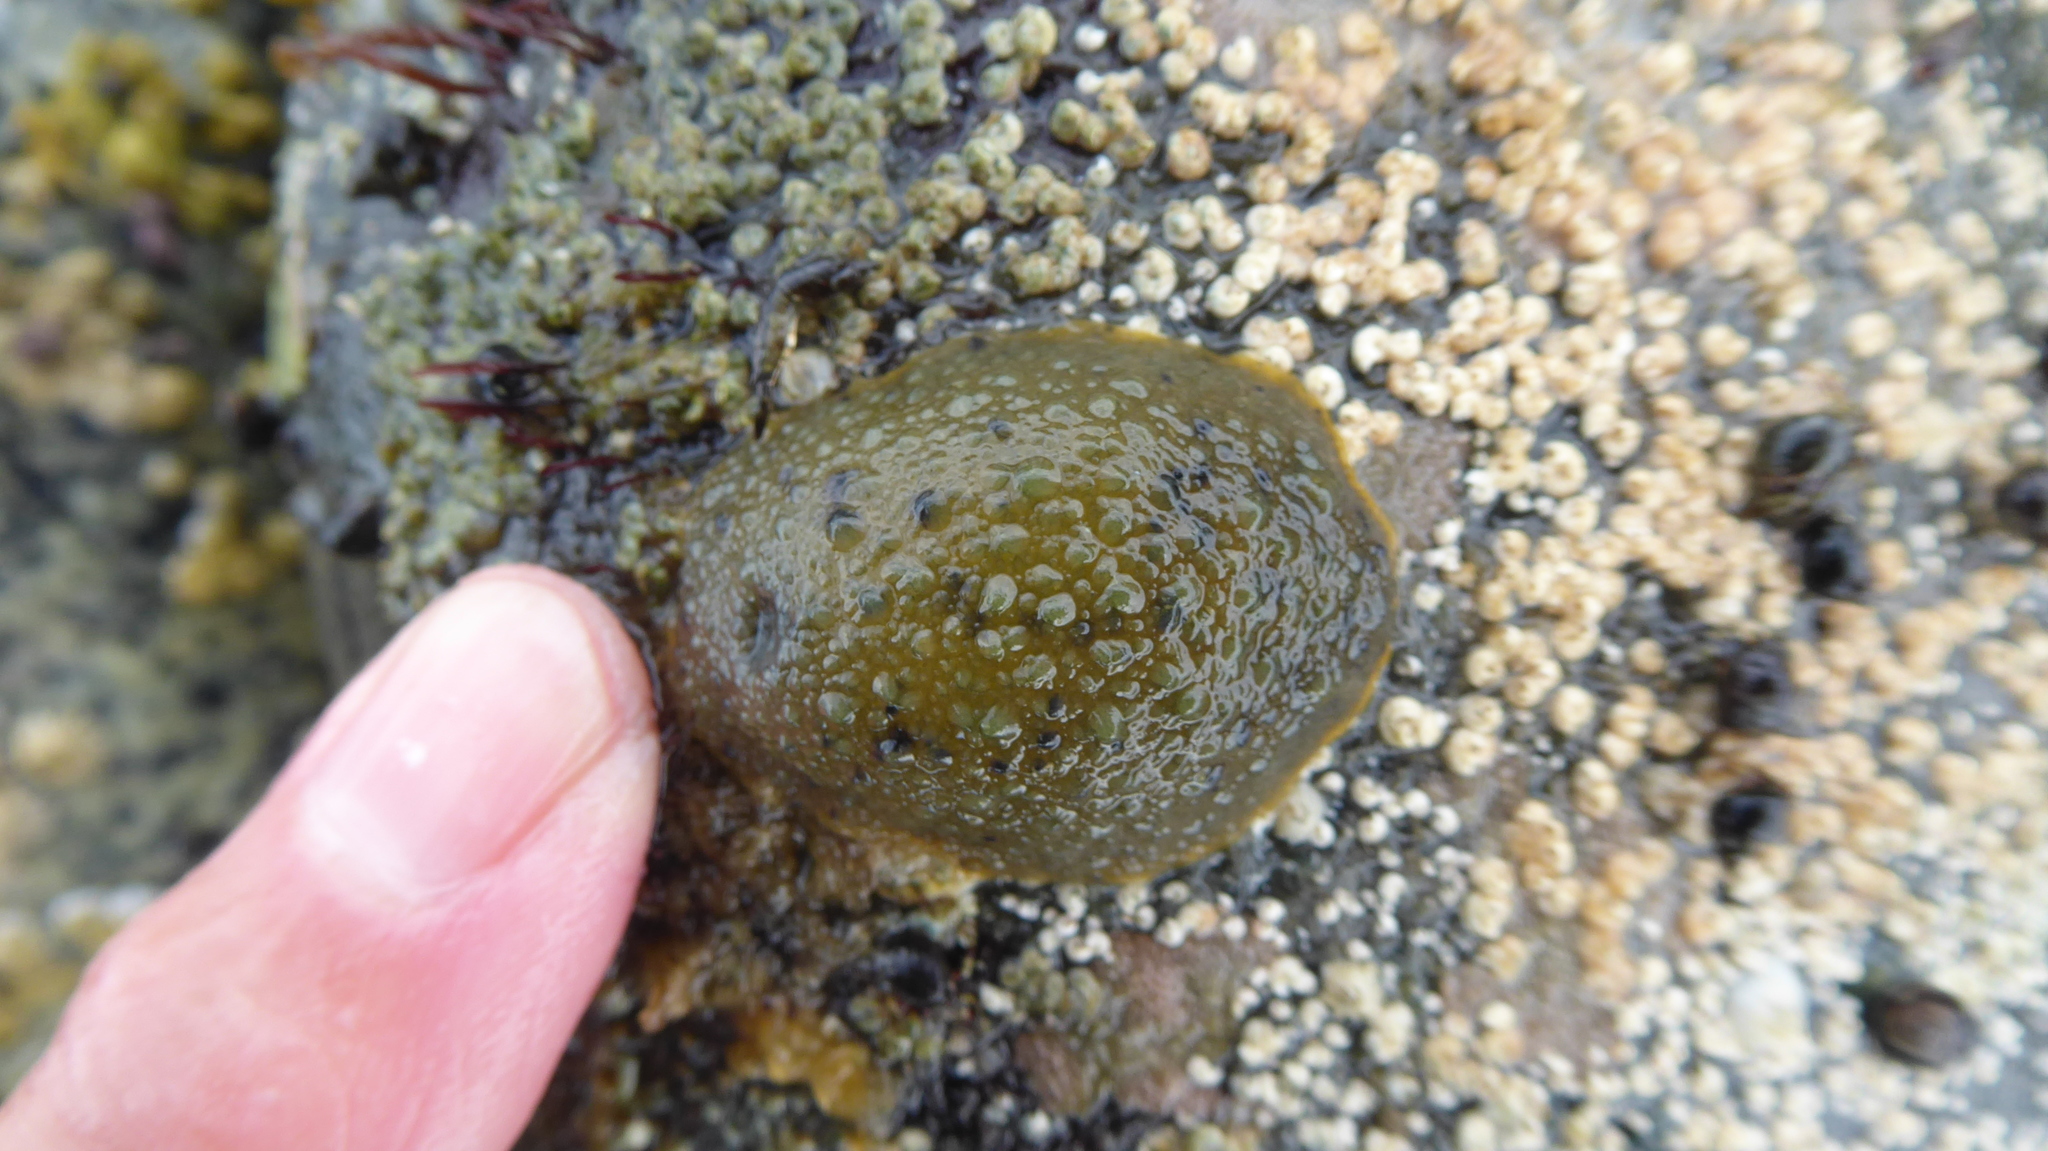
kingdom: Animalia
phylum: Mollusca
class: Gastropoda
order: Nudibranchia
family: Dorididae
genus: Doris
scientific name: Doris montereyensis
